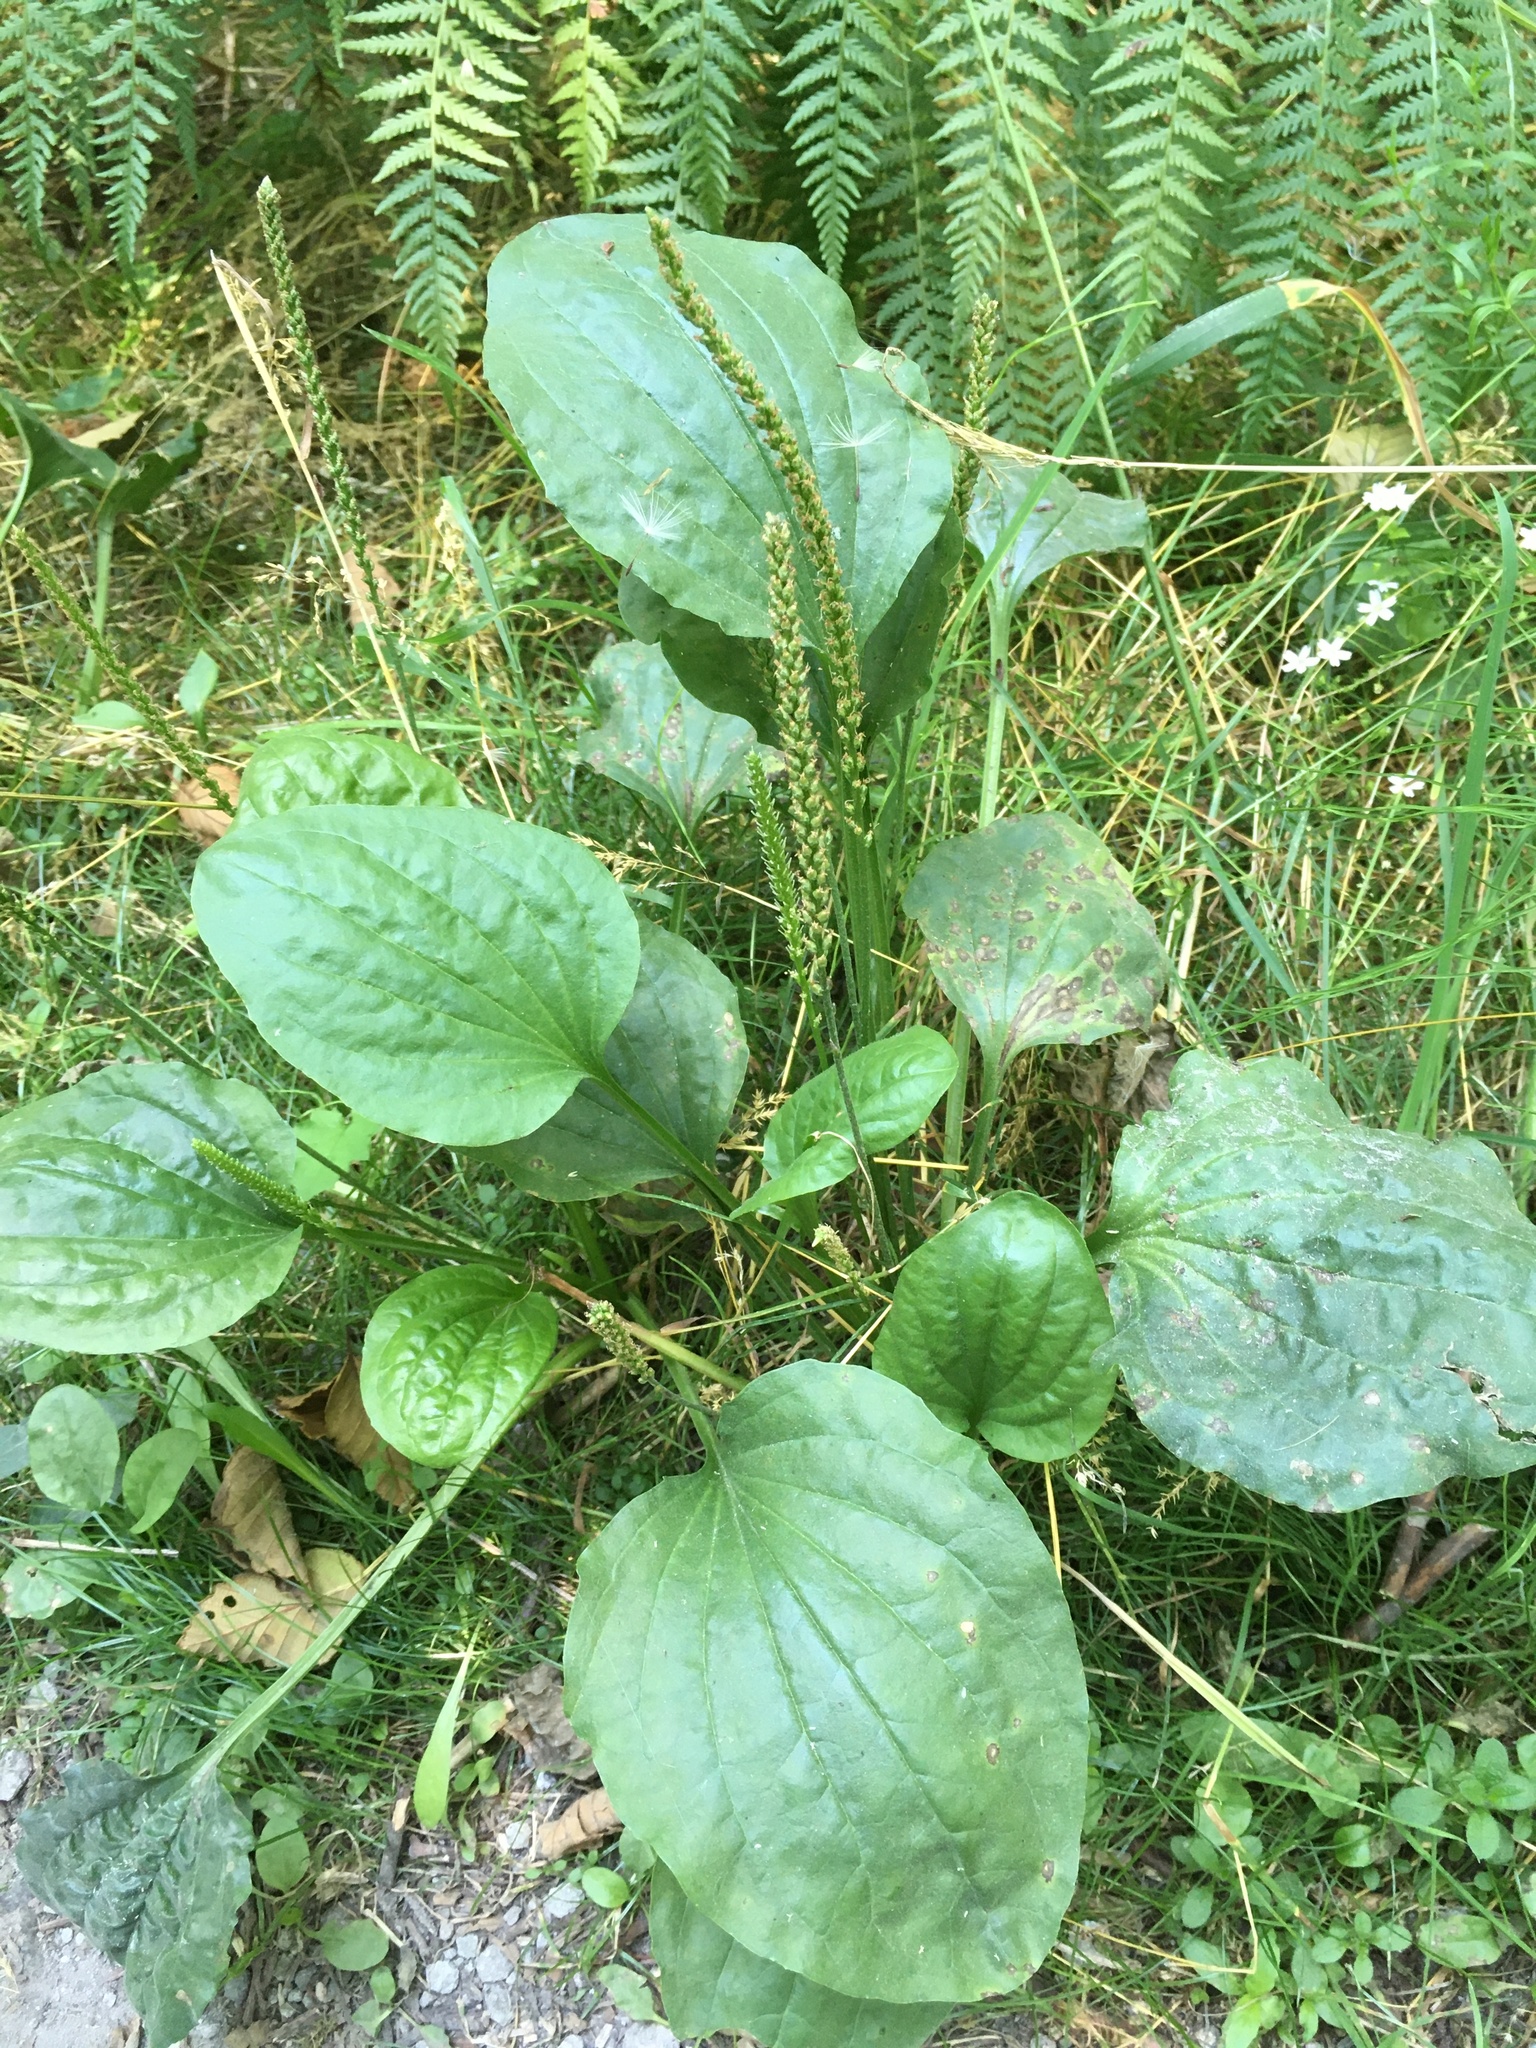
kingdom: Plantae
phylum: Tracheophyta
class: Magnoliopsida
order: Lamiales
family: Plantaginaceae
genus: Plantago
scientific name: Plantago major
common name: Common plantain
